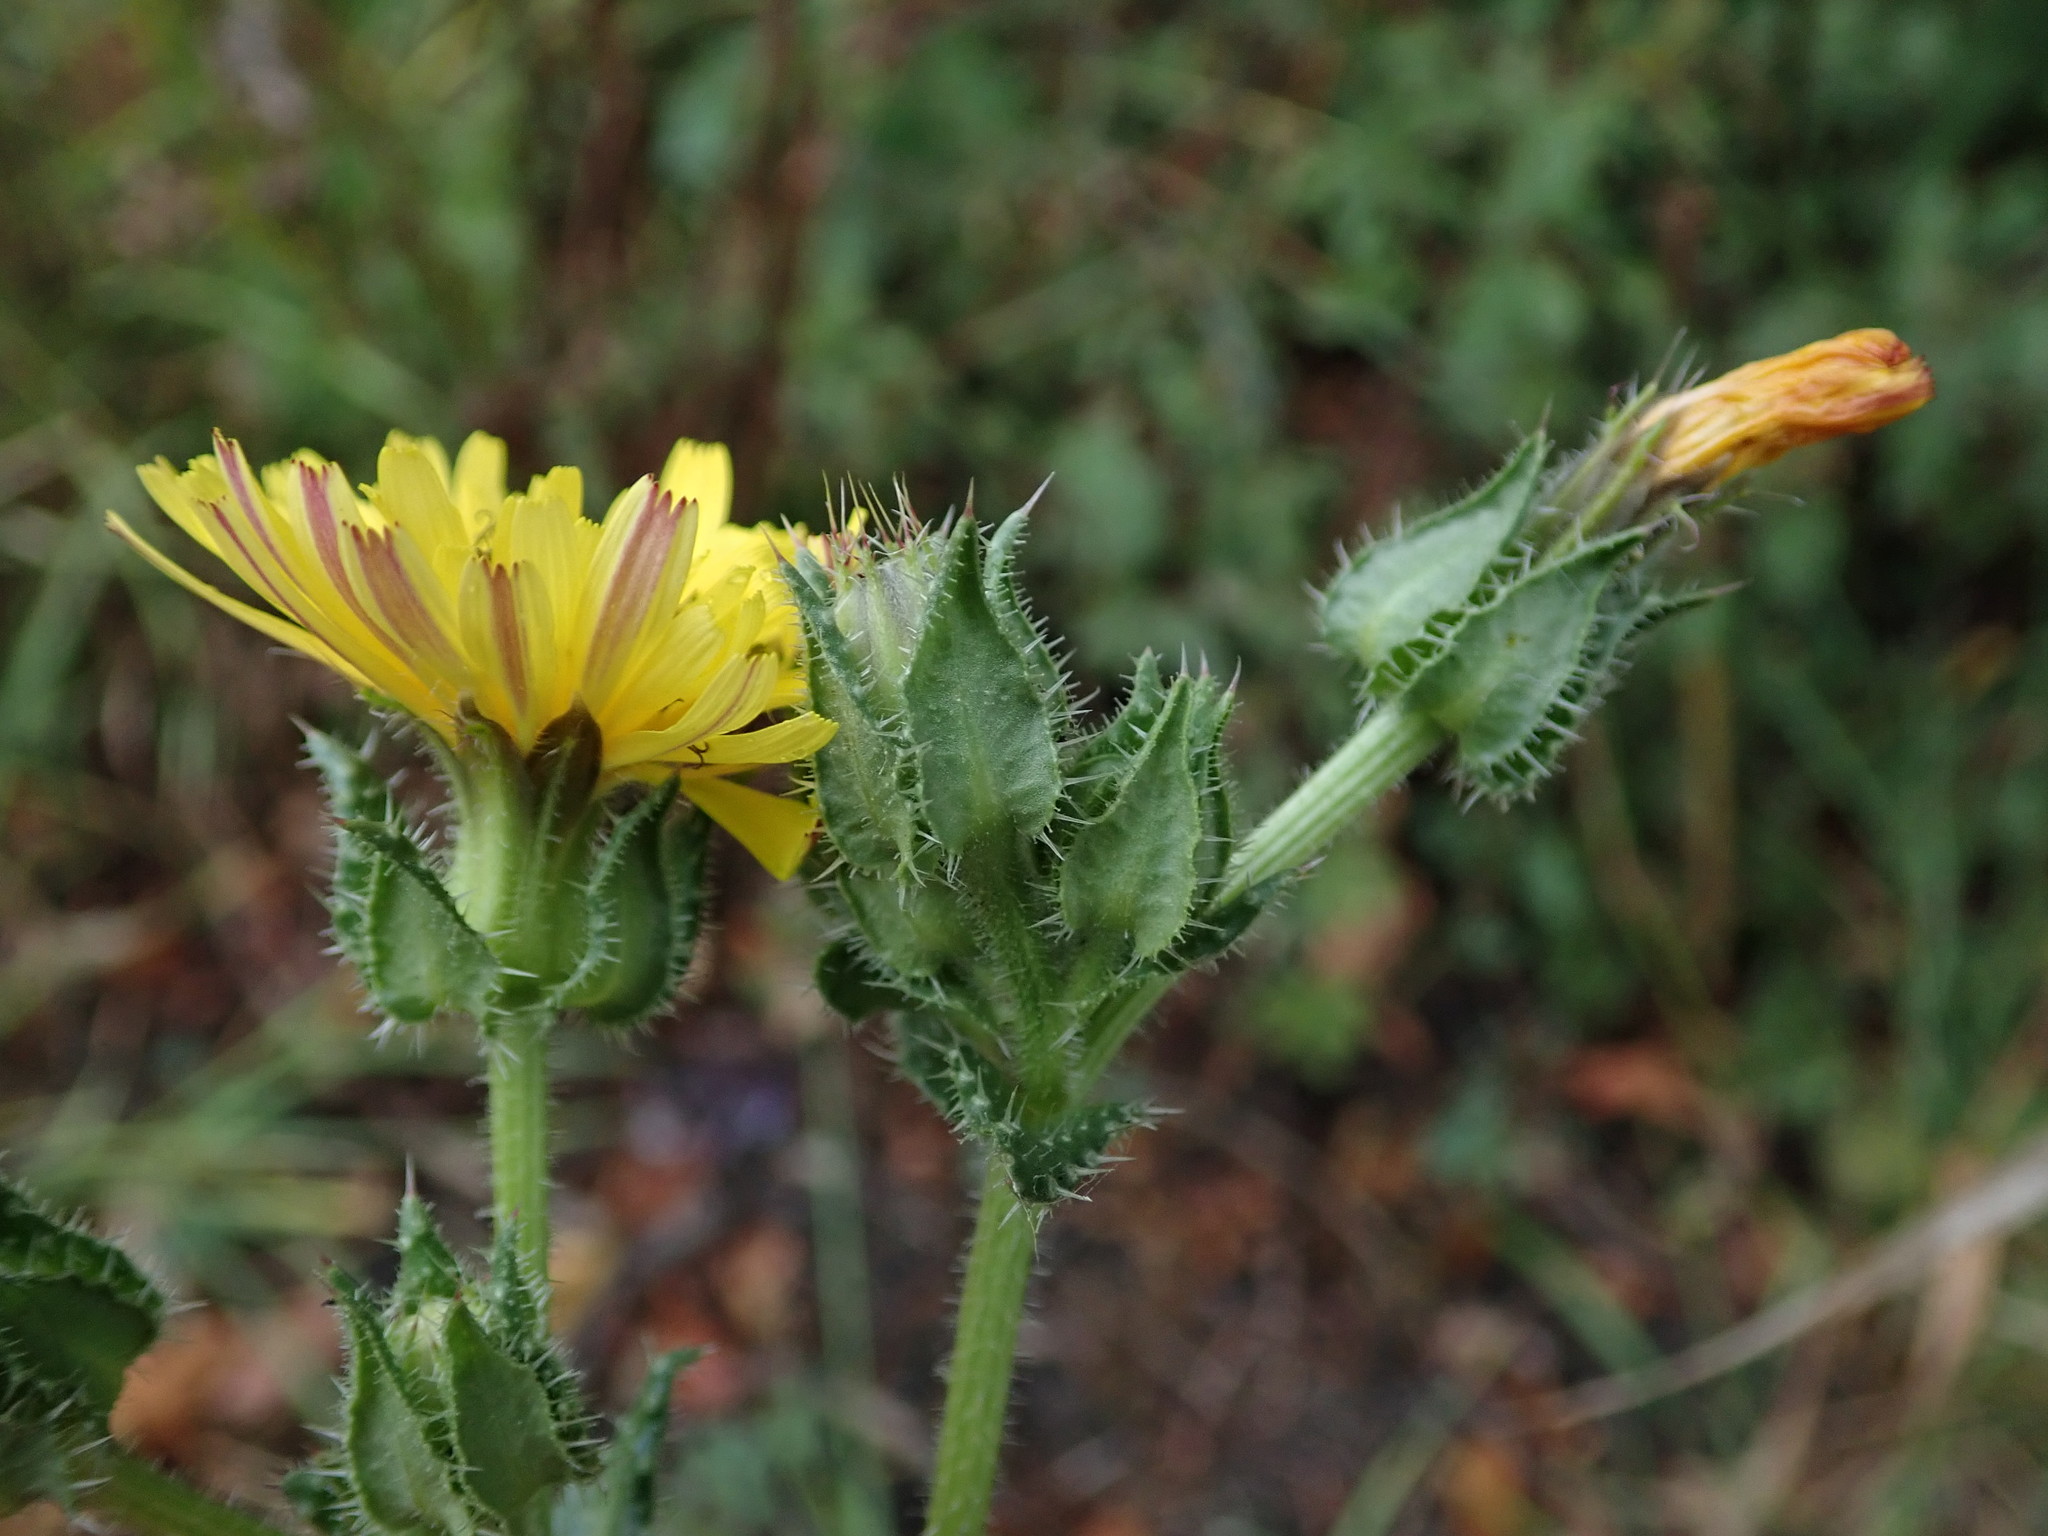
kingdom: Plantae
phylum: Tracheophyta
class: Magnoliopsida
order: Asterales
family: Asteraceae
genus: Helminthotheca
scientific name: Helminthotheca echioides
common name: Ox-tongue
